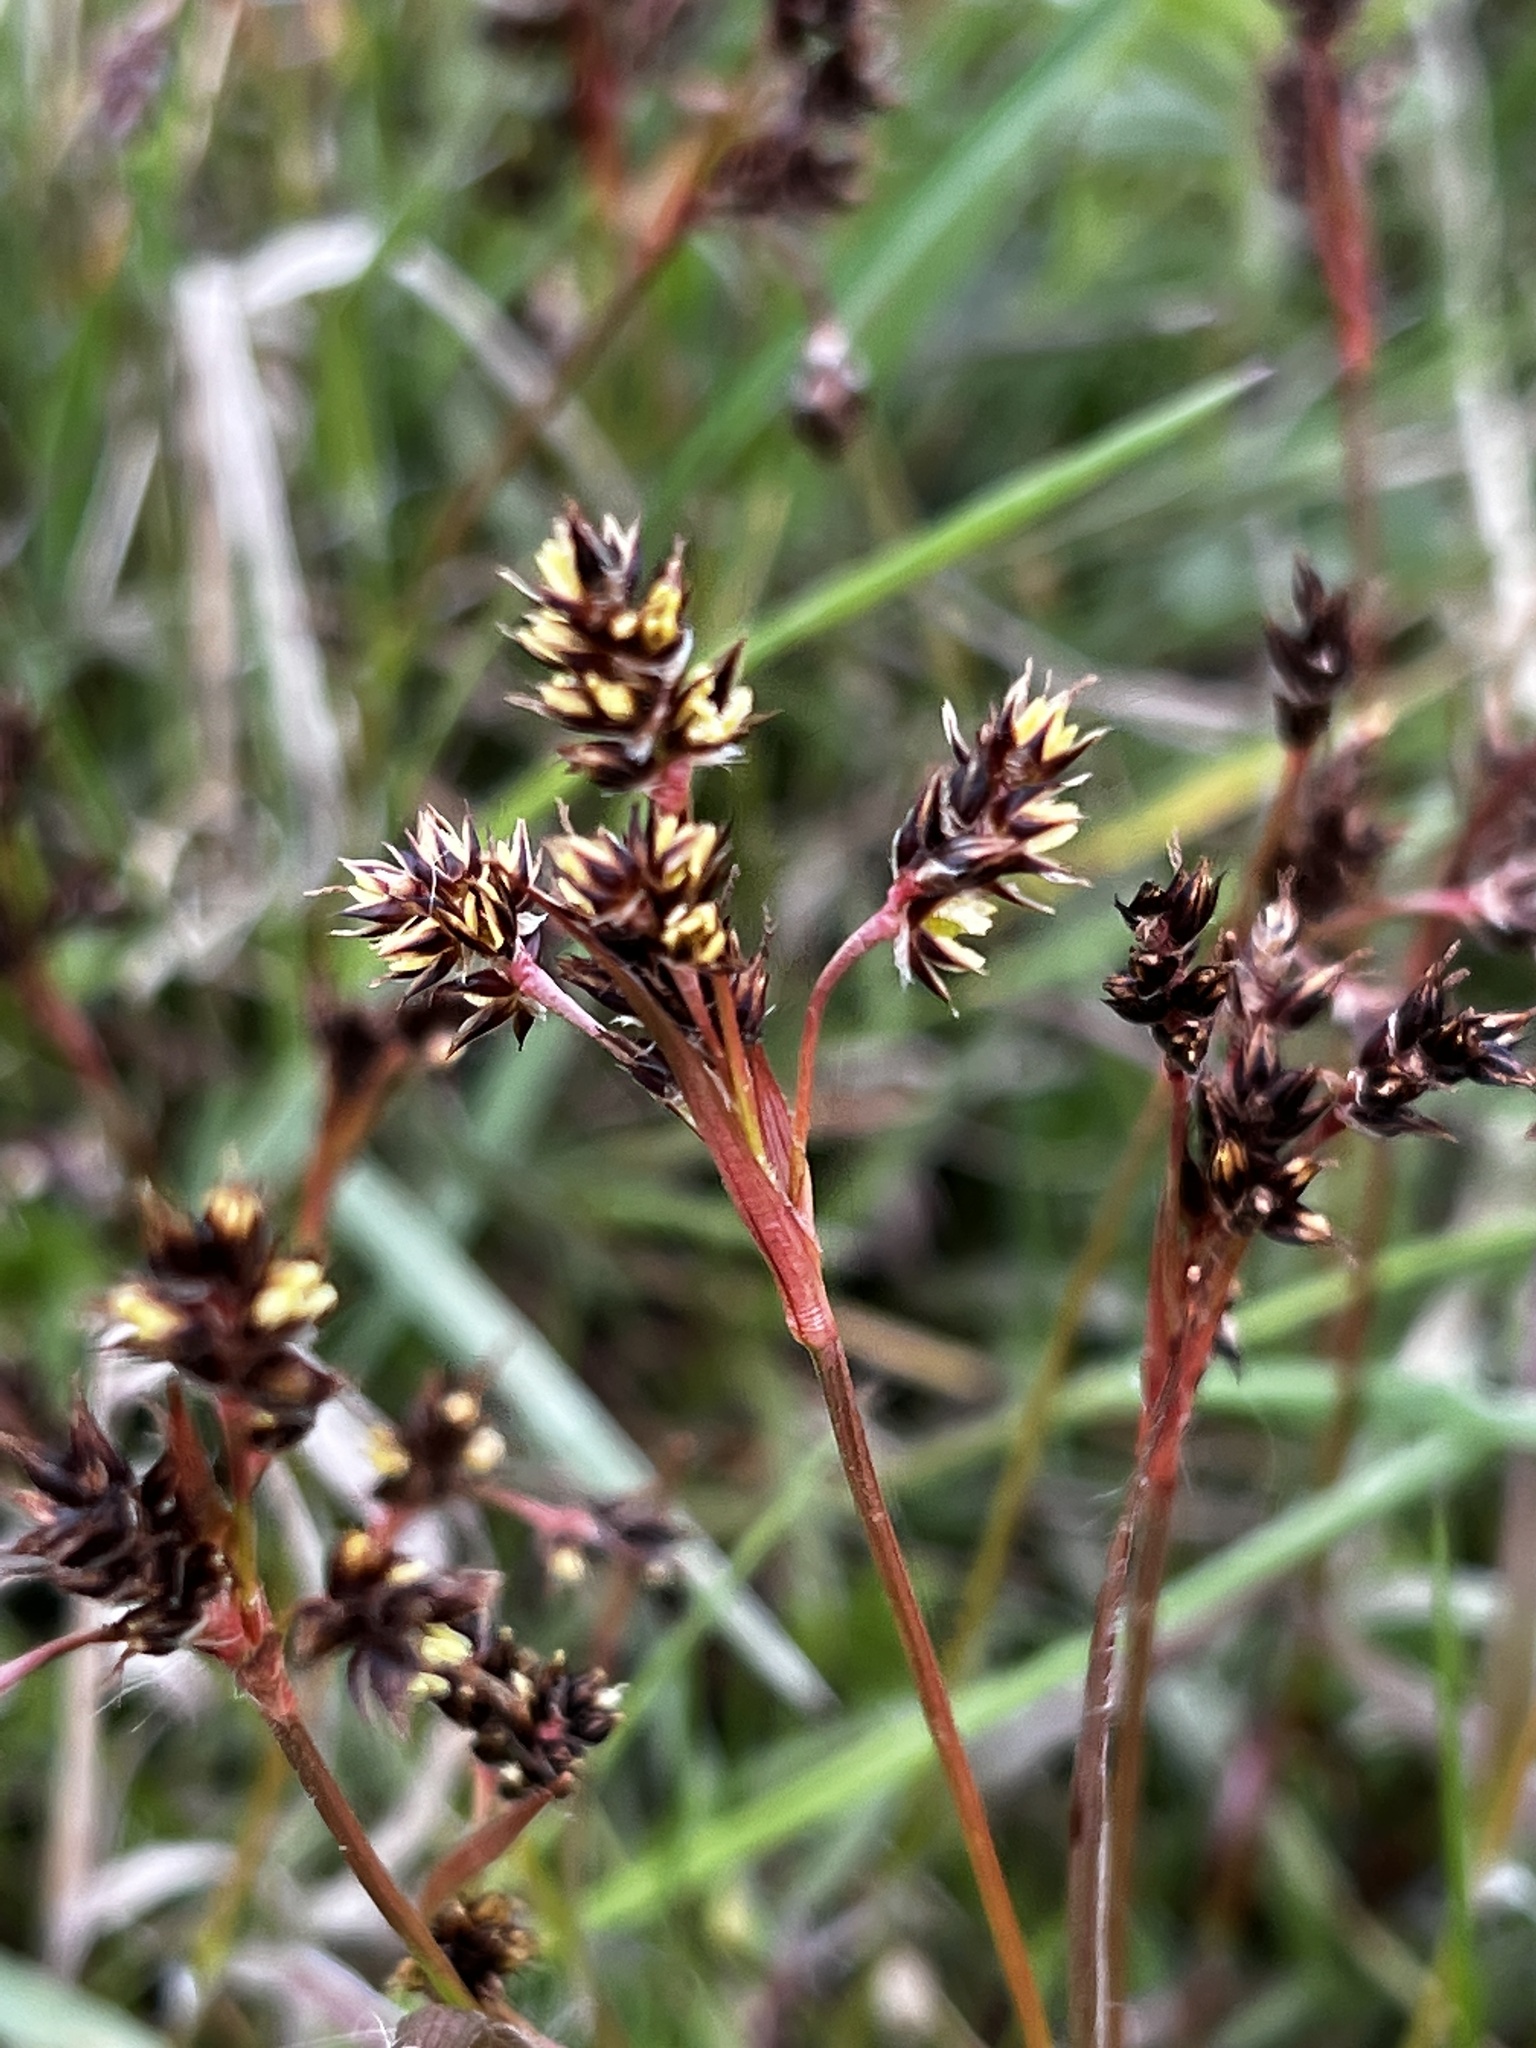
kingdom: Plantae
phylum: Tracheophyta
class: Liliopsida
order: Poales
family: Juncaceae
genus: Luzula
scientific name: Luzula campestris
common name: Field wood-rush
